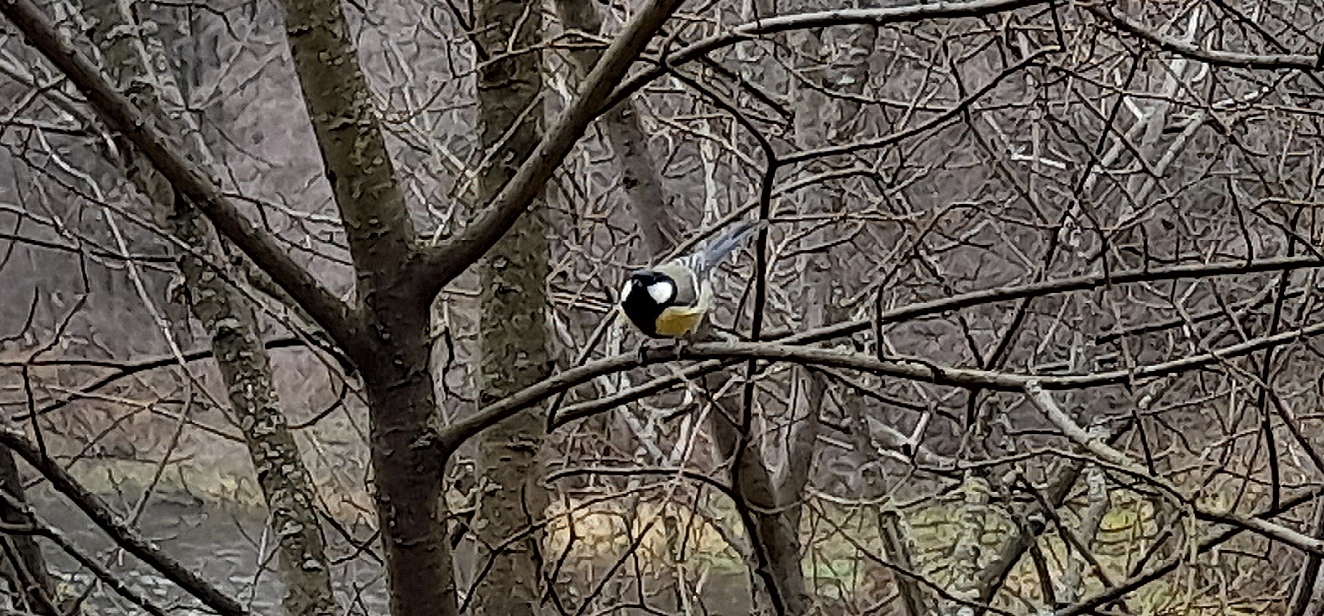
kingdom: Animalia
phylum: Chordata
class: Aves
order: Passeriformes
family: Paridae
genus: Parus
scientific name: Parus major
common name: Great tit
